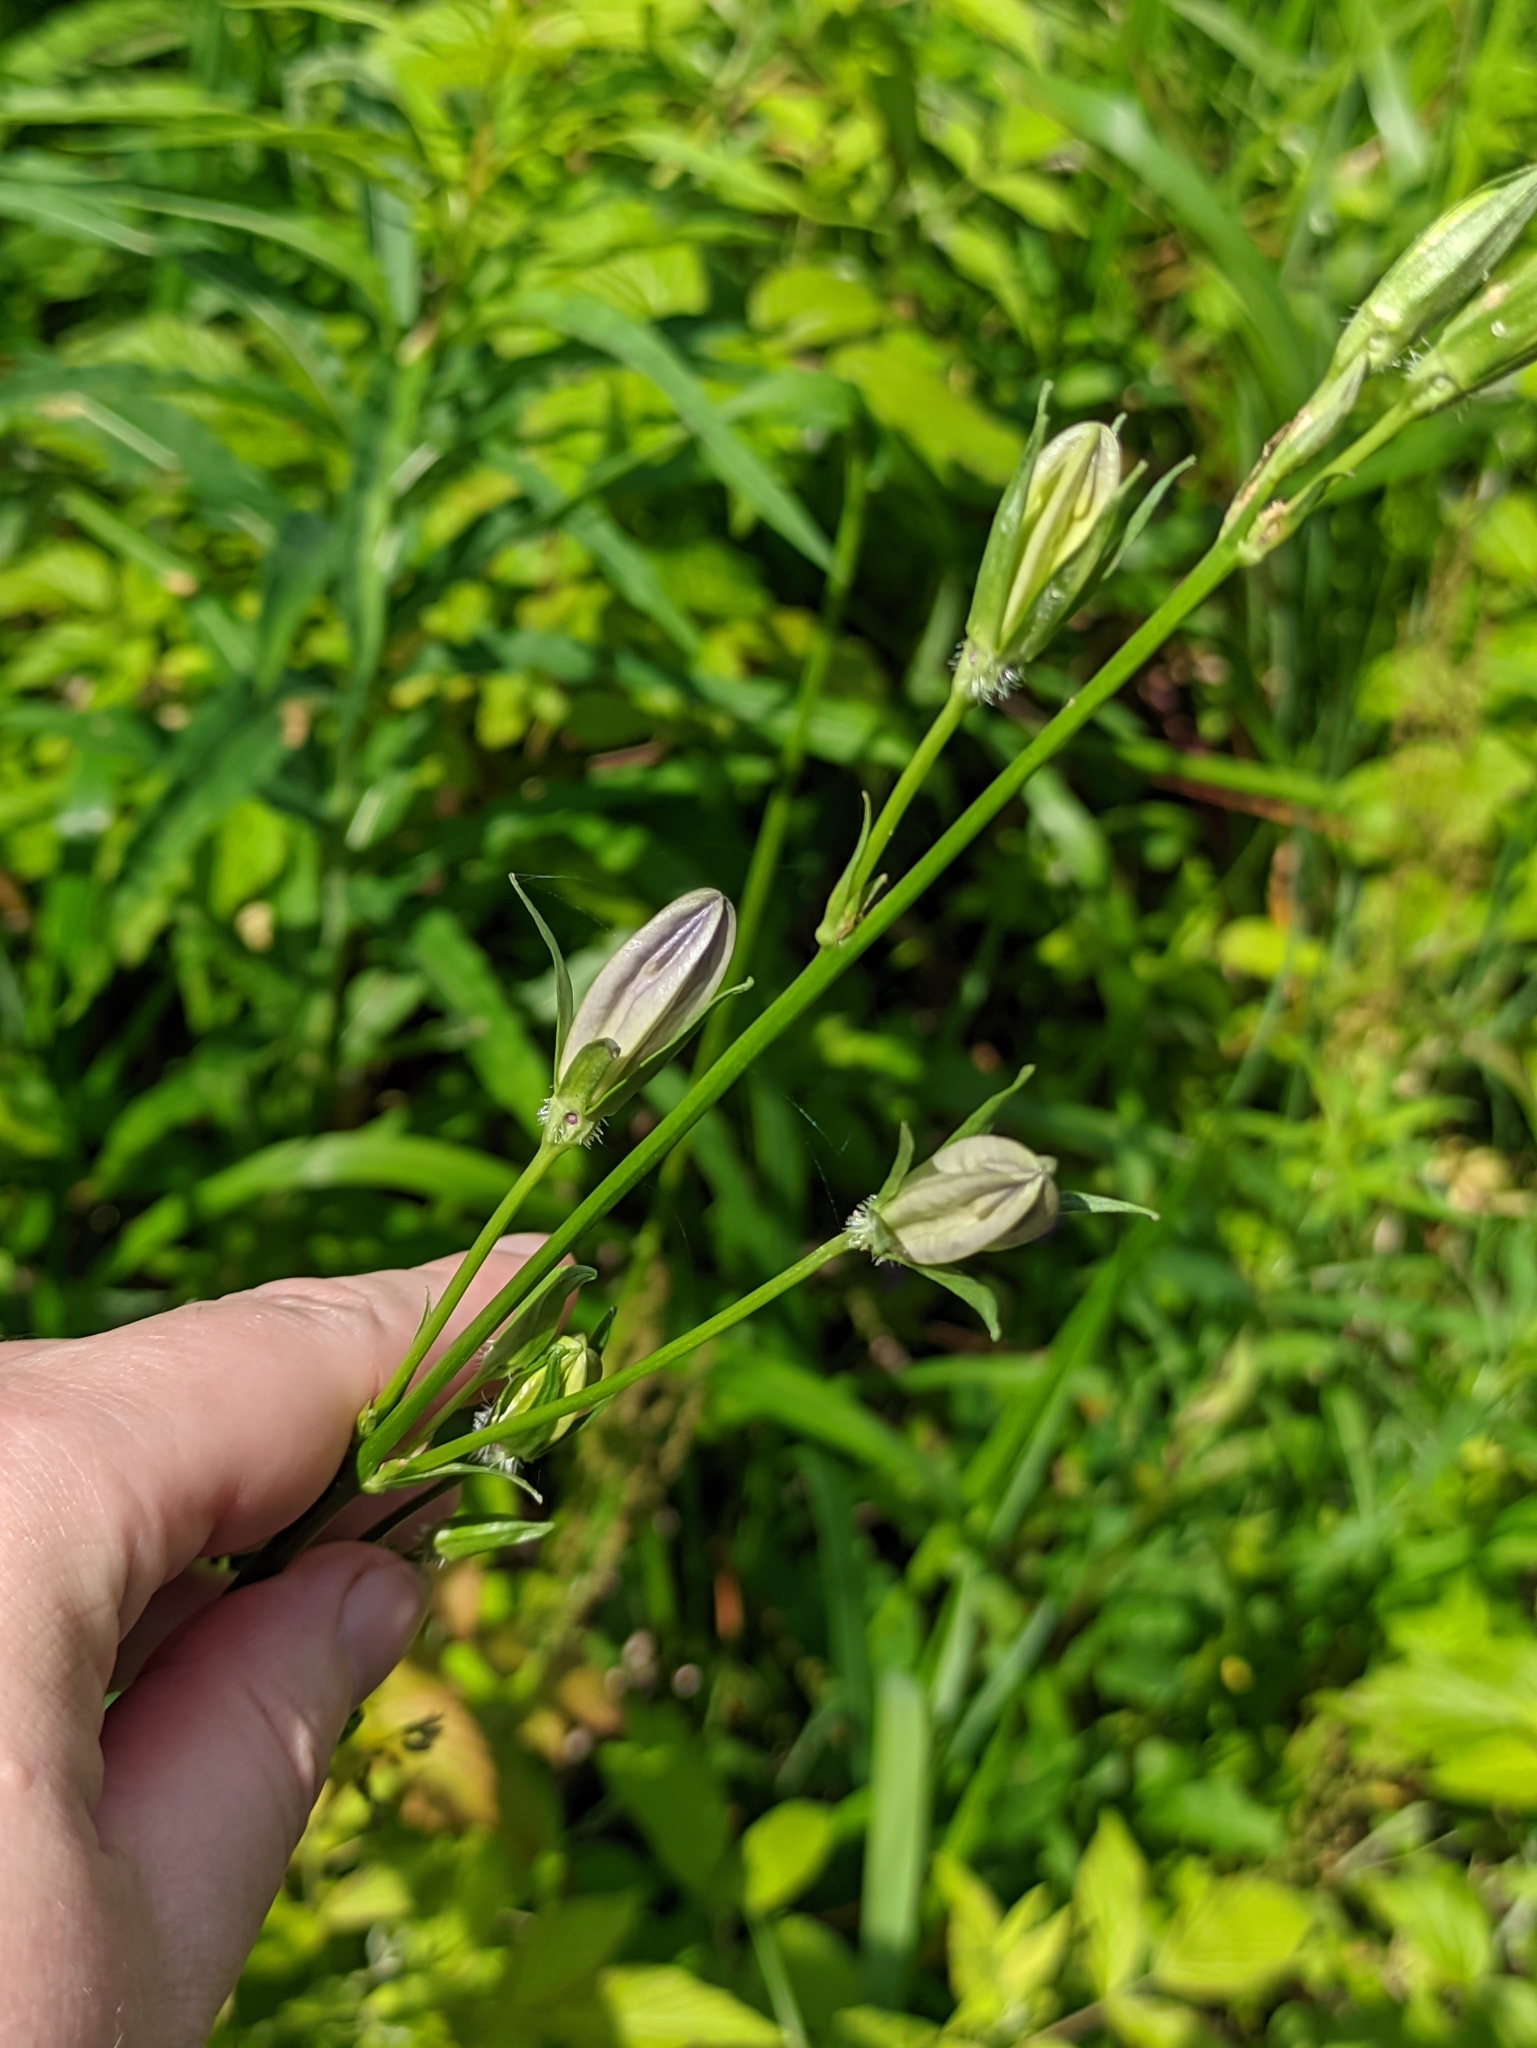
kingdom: Plantae
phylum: Tracheophyta
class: Magnoliopsida
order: Asterales
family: Campanulaceae
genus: Campanula
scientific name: Campanula persicifolia
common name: Peach-leaved bellflower
